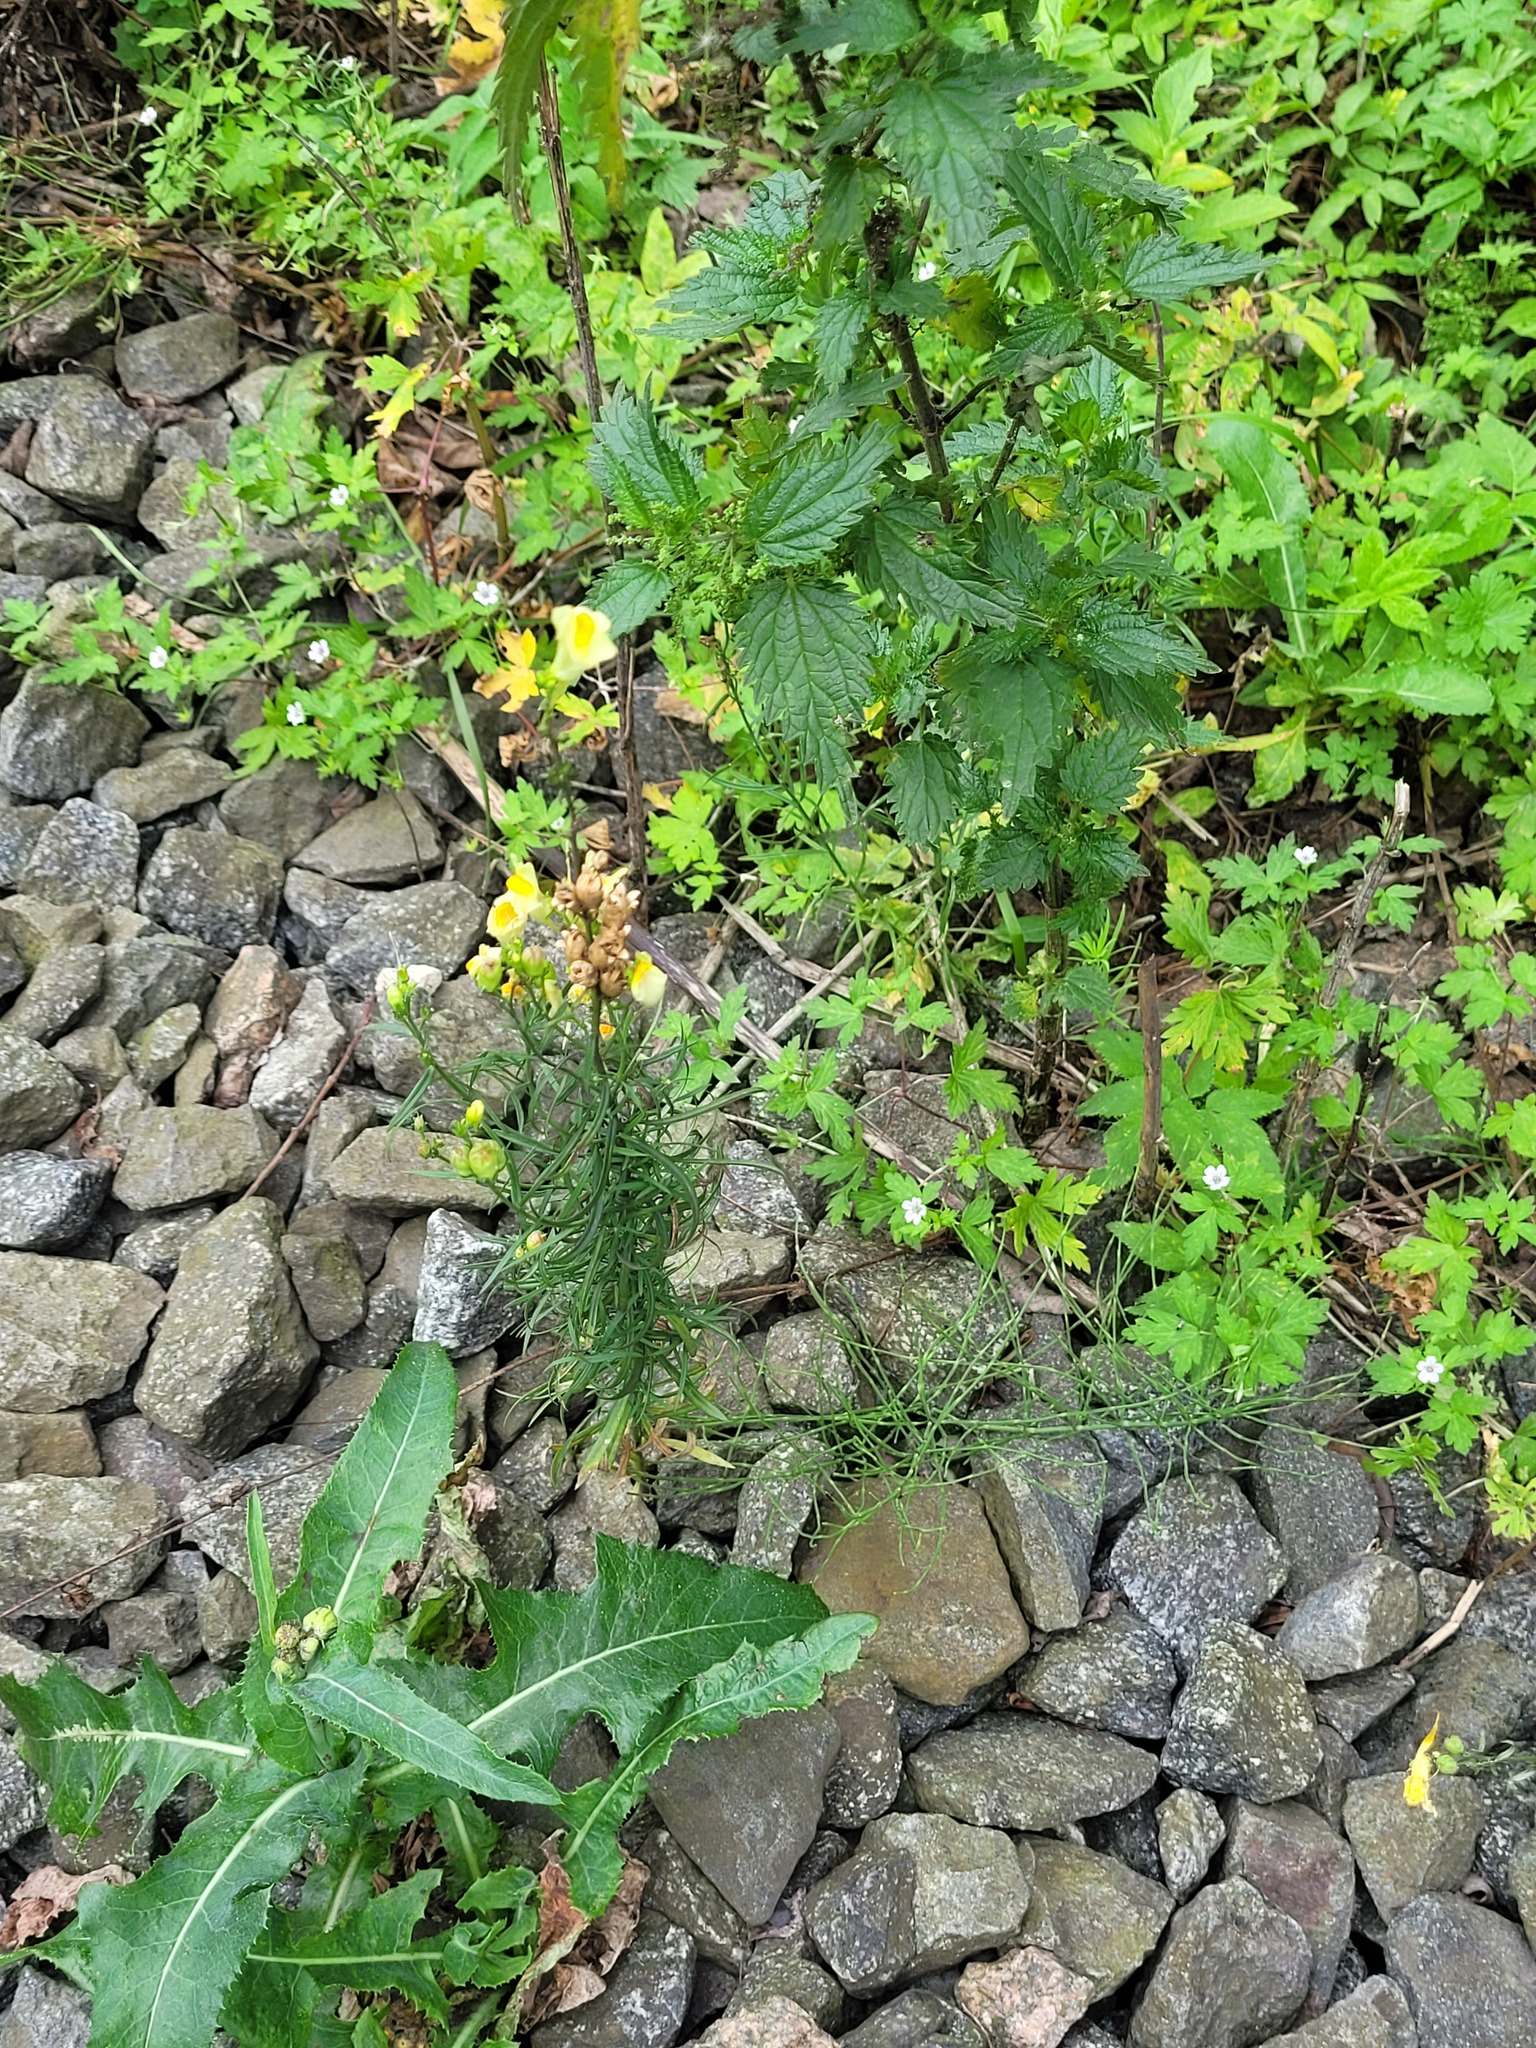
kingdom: Plantae
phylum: Tracheophyta
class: Magnoliopsida
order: Lamiales
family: Plantaginaceae
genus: Linaria
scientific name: Linaria vulgaris
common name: Butter and eggs
